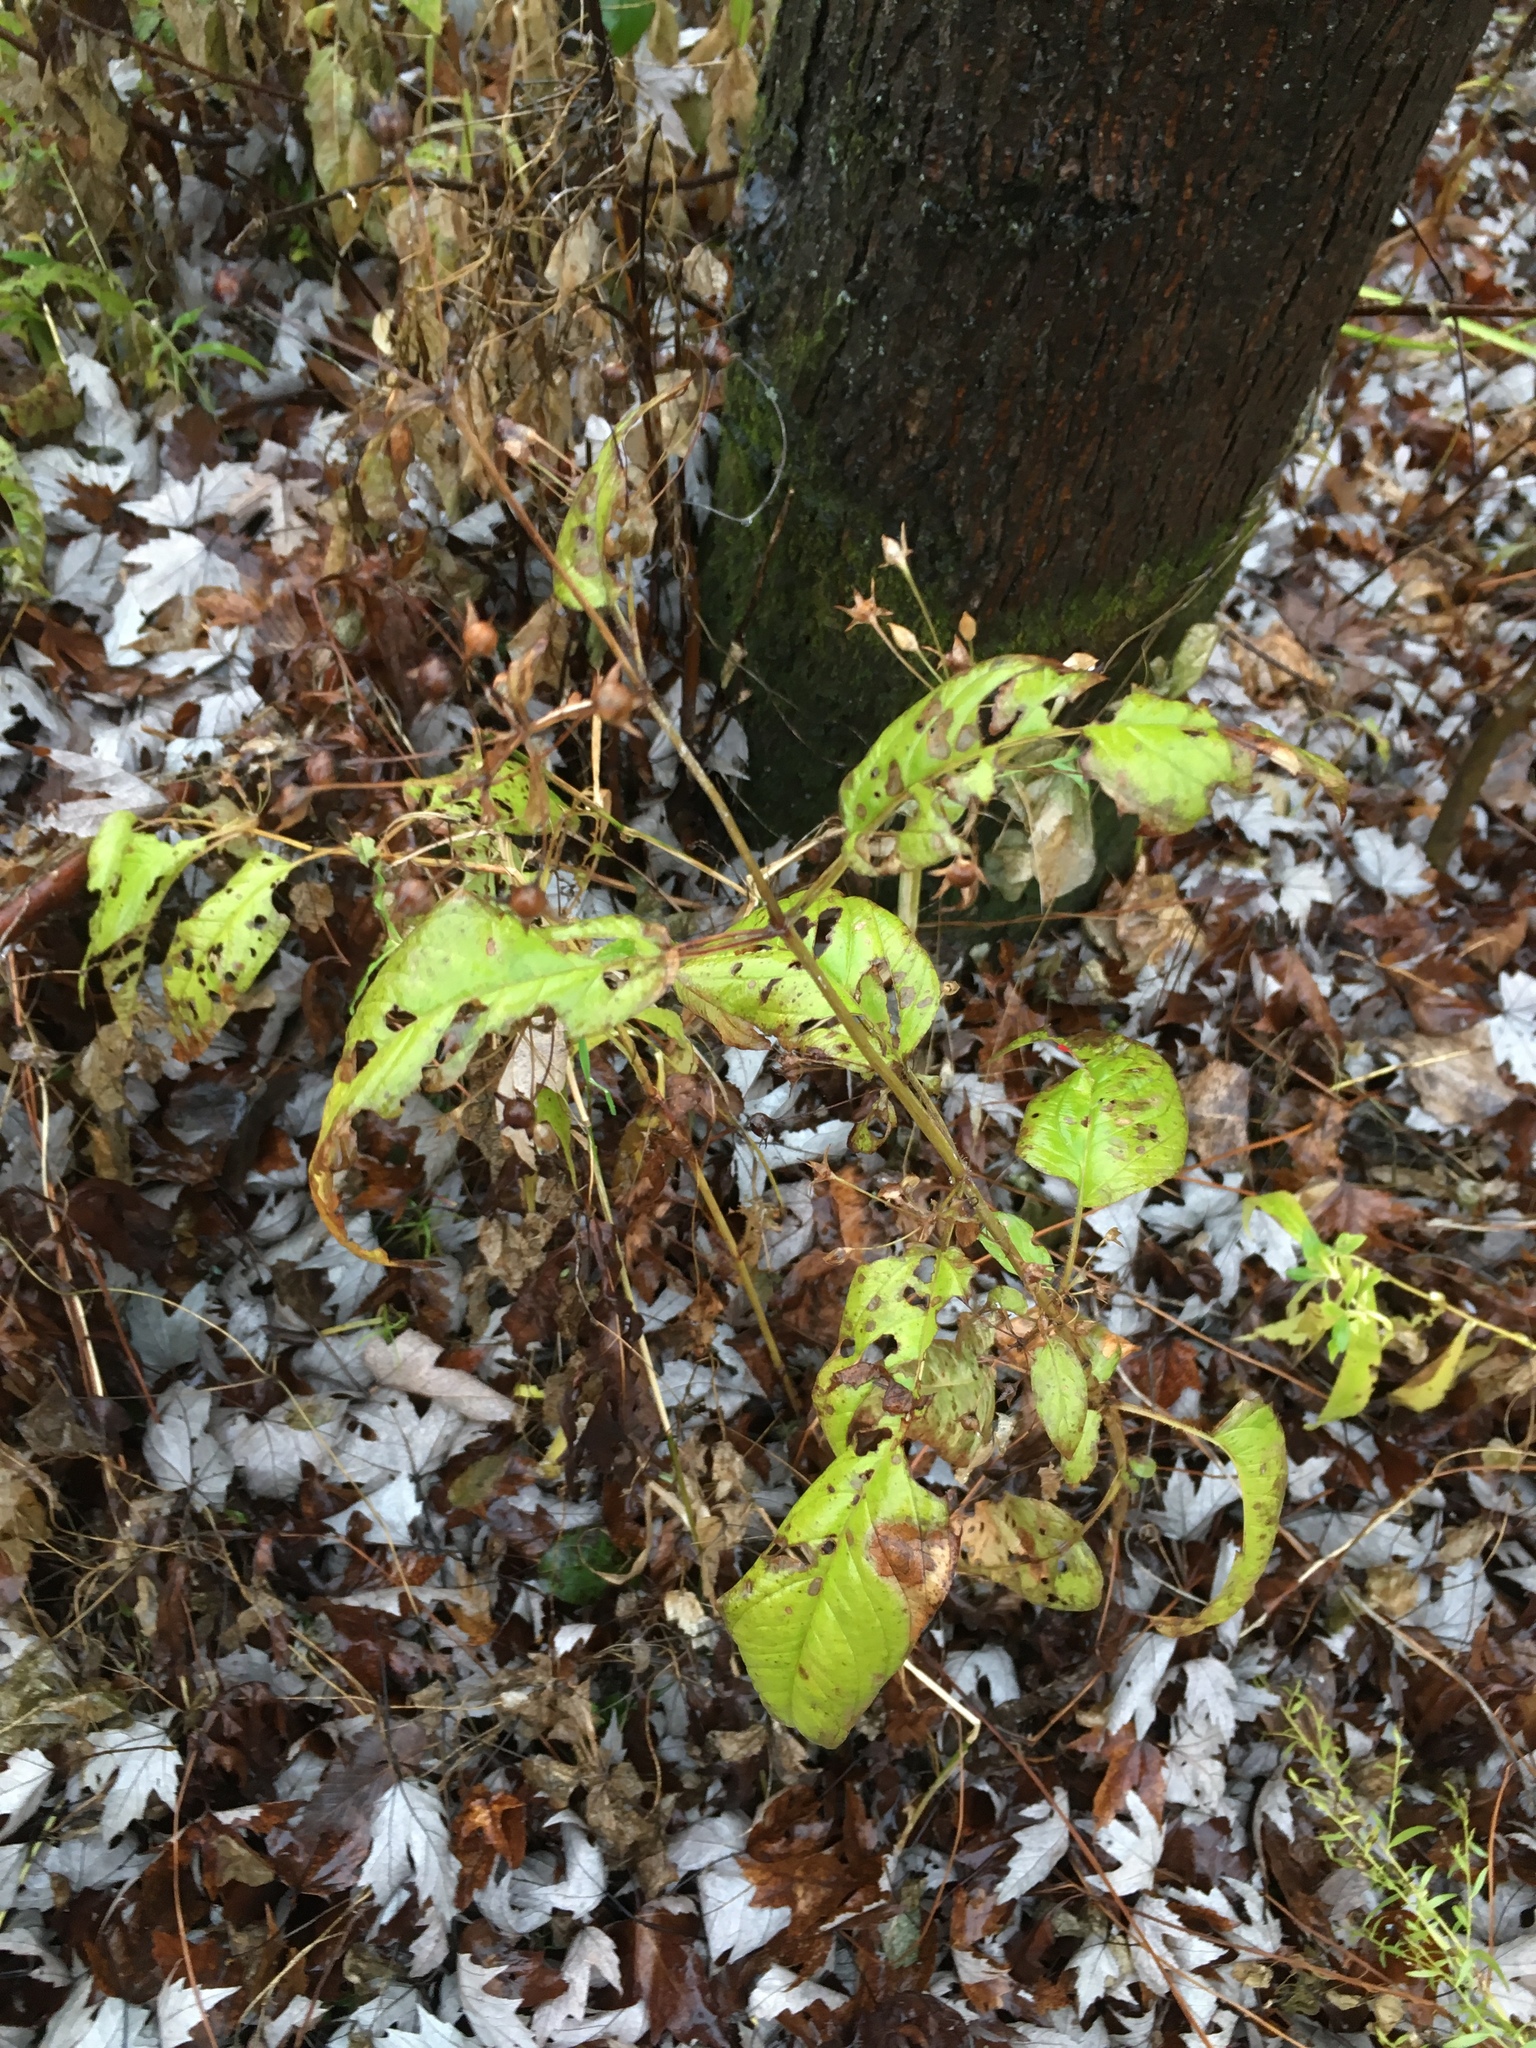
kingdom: Plantae
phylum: Tracheophyta
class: Magnoliopsida
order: Ericales
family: Primulaceae
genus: Lysimachia
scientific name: Lysimachia ciliata
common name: Fringed loosestrife
